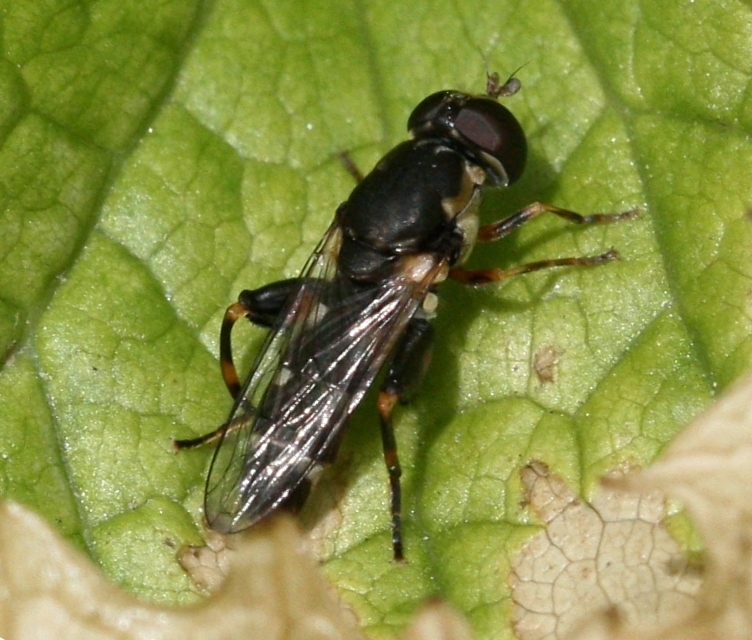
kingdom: Animalia
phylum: Arthropoda
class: Insecta
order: Diptera
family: Syrphidae
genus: Syritta
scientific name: Syritta pipiens
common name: Hover fly
